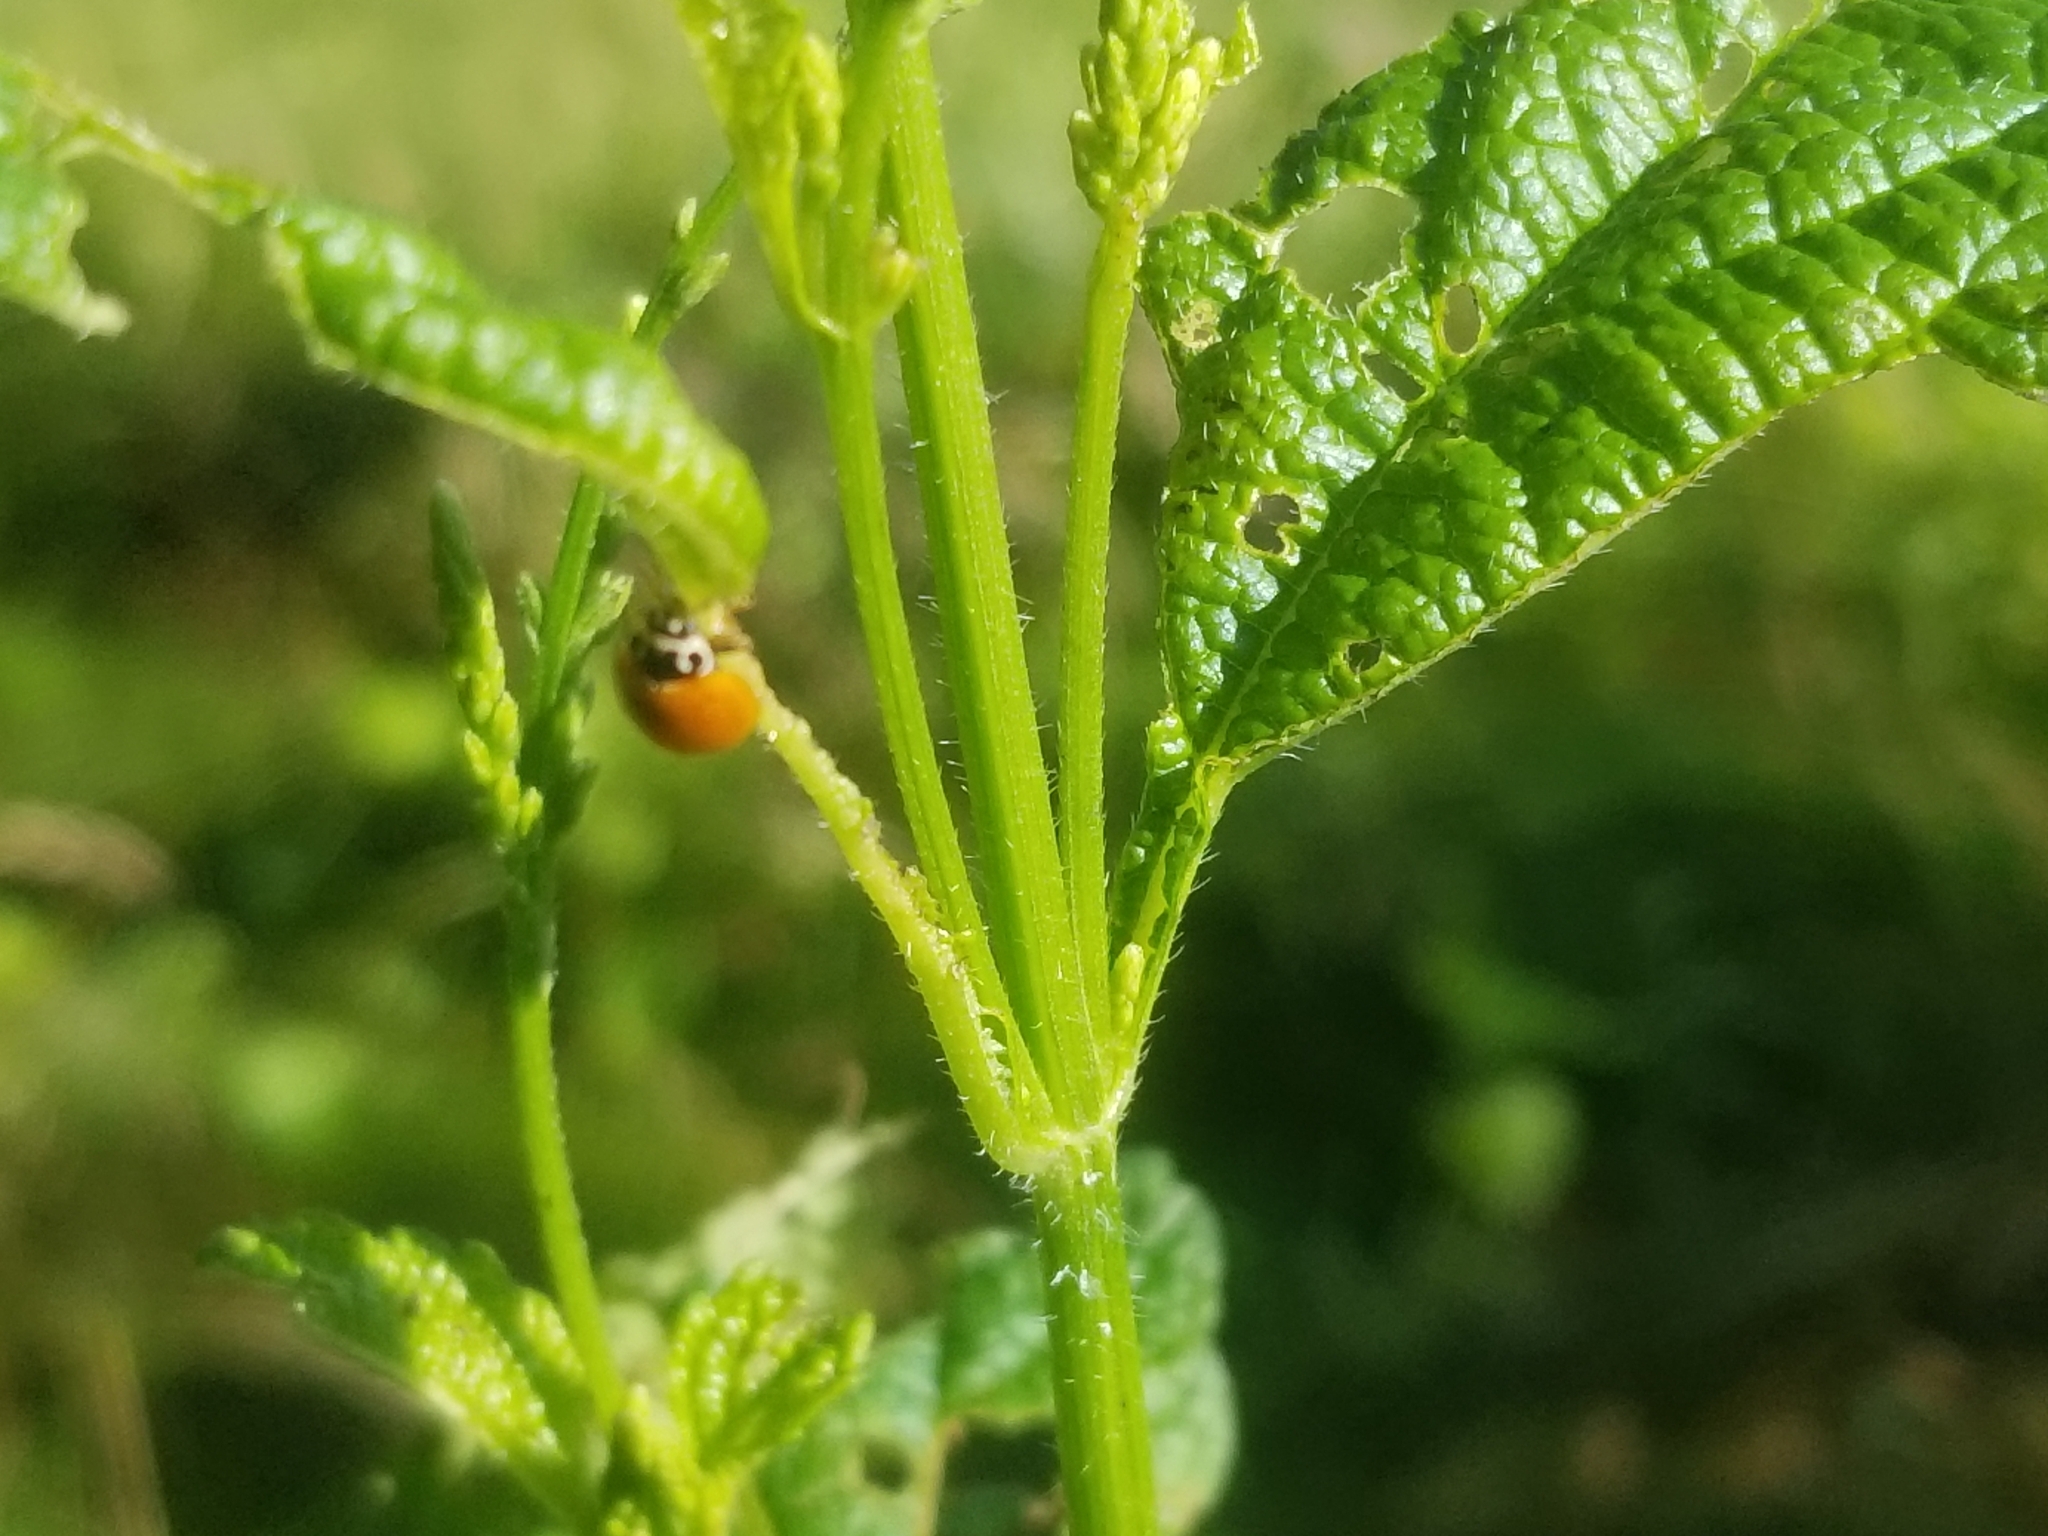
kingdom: Animalia
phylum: Arthropoda
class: Insecta
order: Coleoptera
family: Coccinellidae
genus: Cycloneda
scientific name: Cycloneda munda
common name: Polished lady beetle
